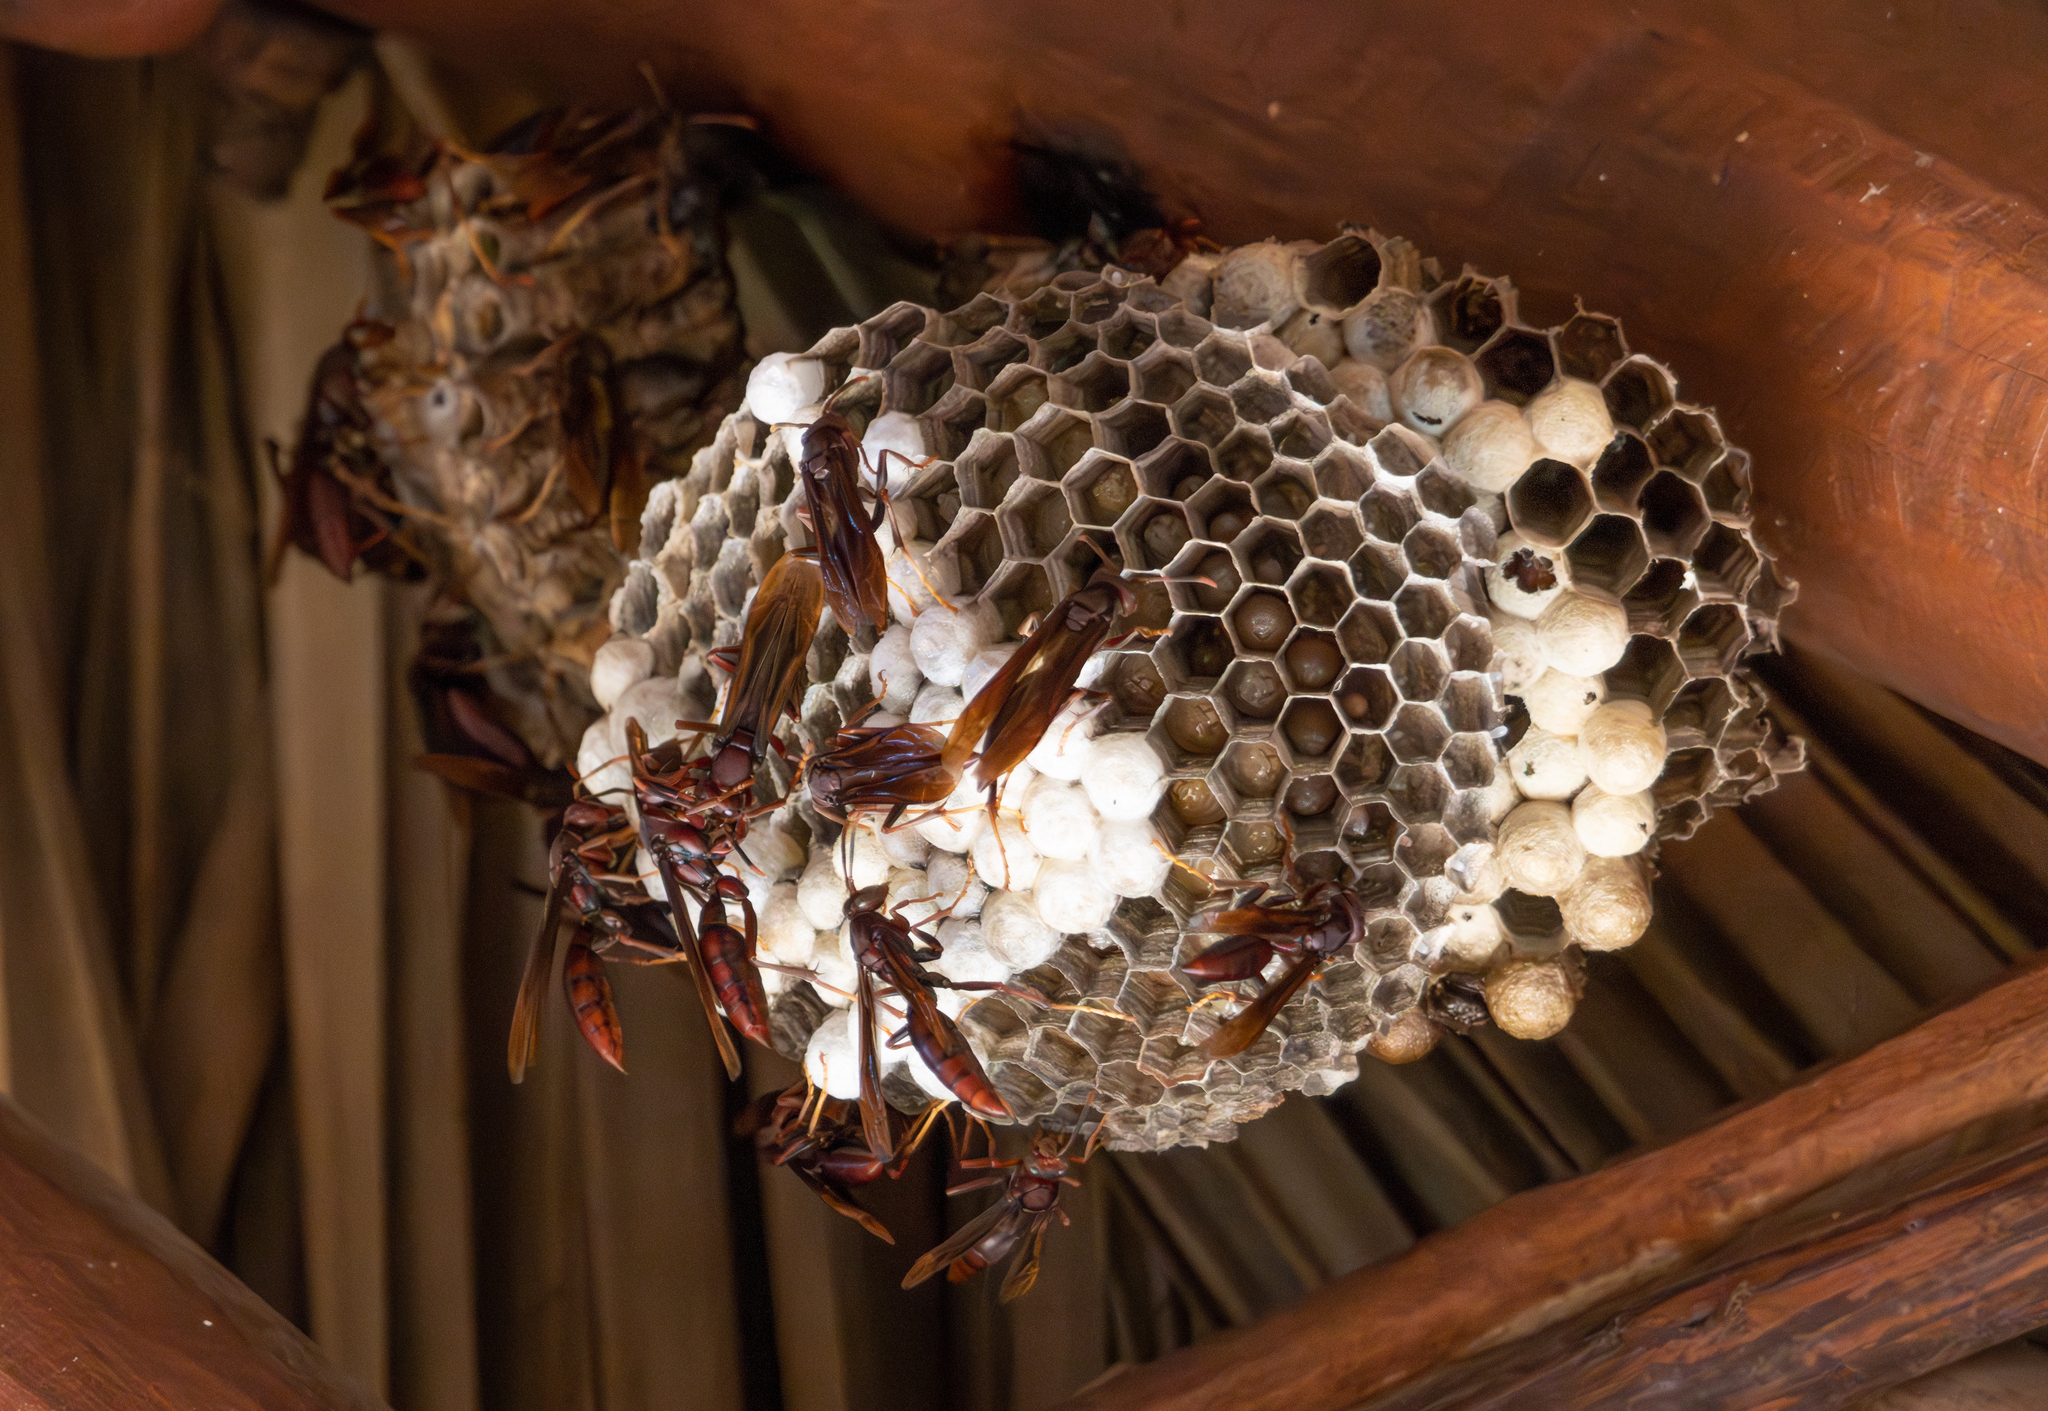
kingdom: Animalia
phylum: Arthropoda
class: Insecta
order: Hymenoptera
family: Eumenidae
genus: Polistes
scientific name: Polistes canadensis
